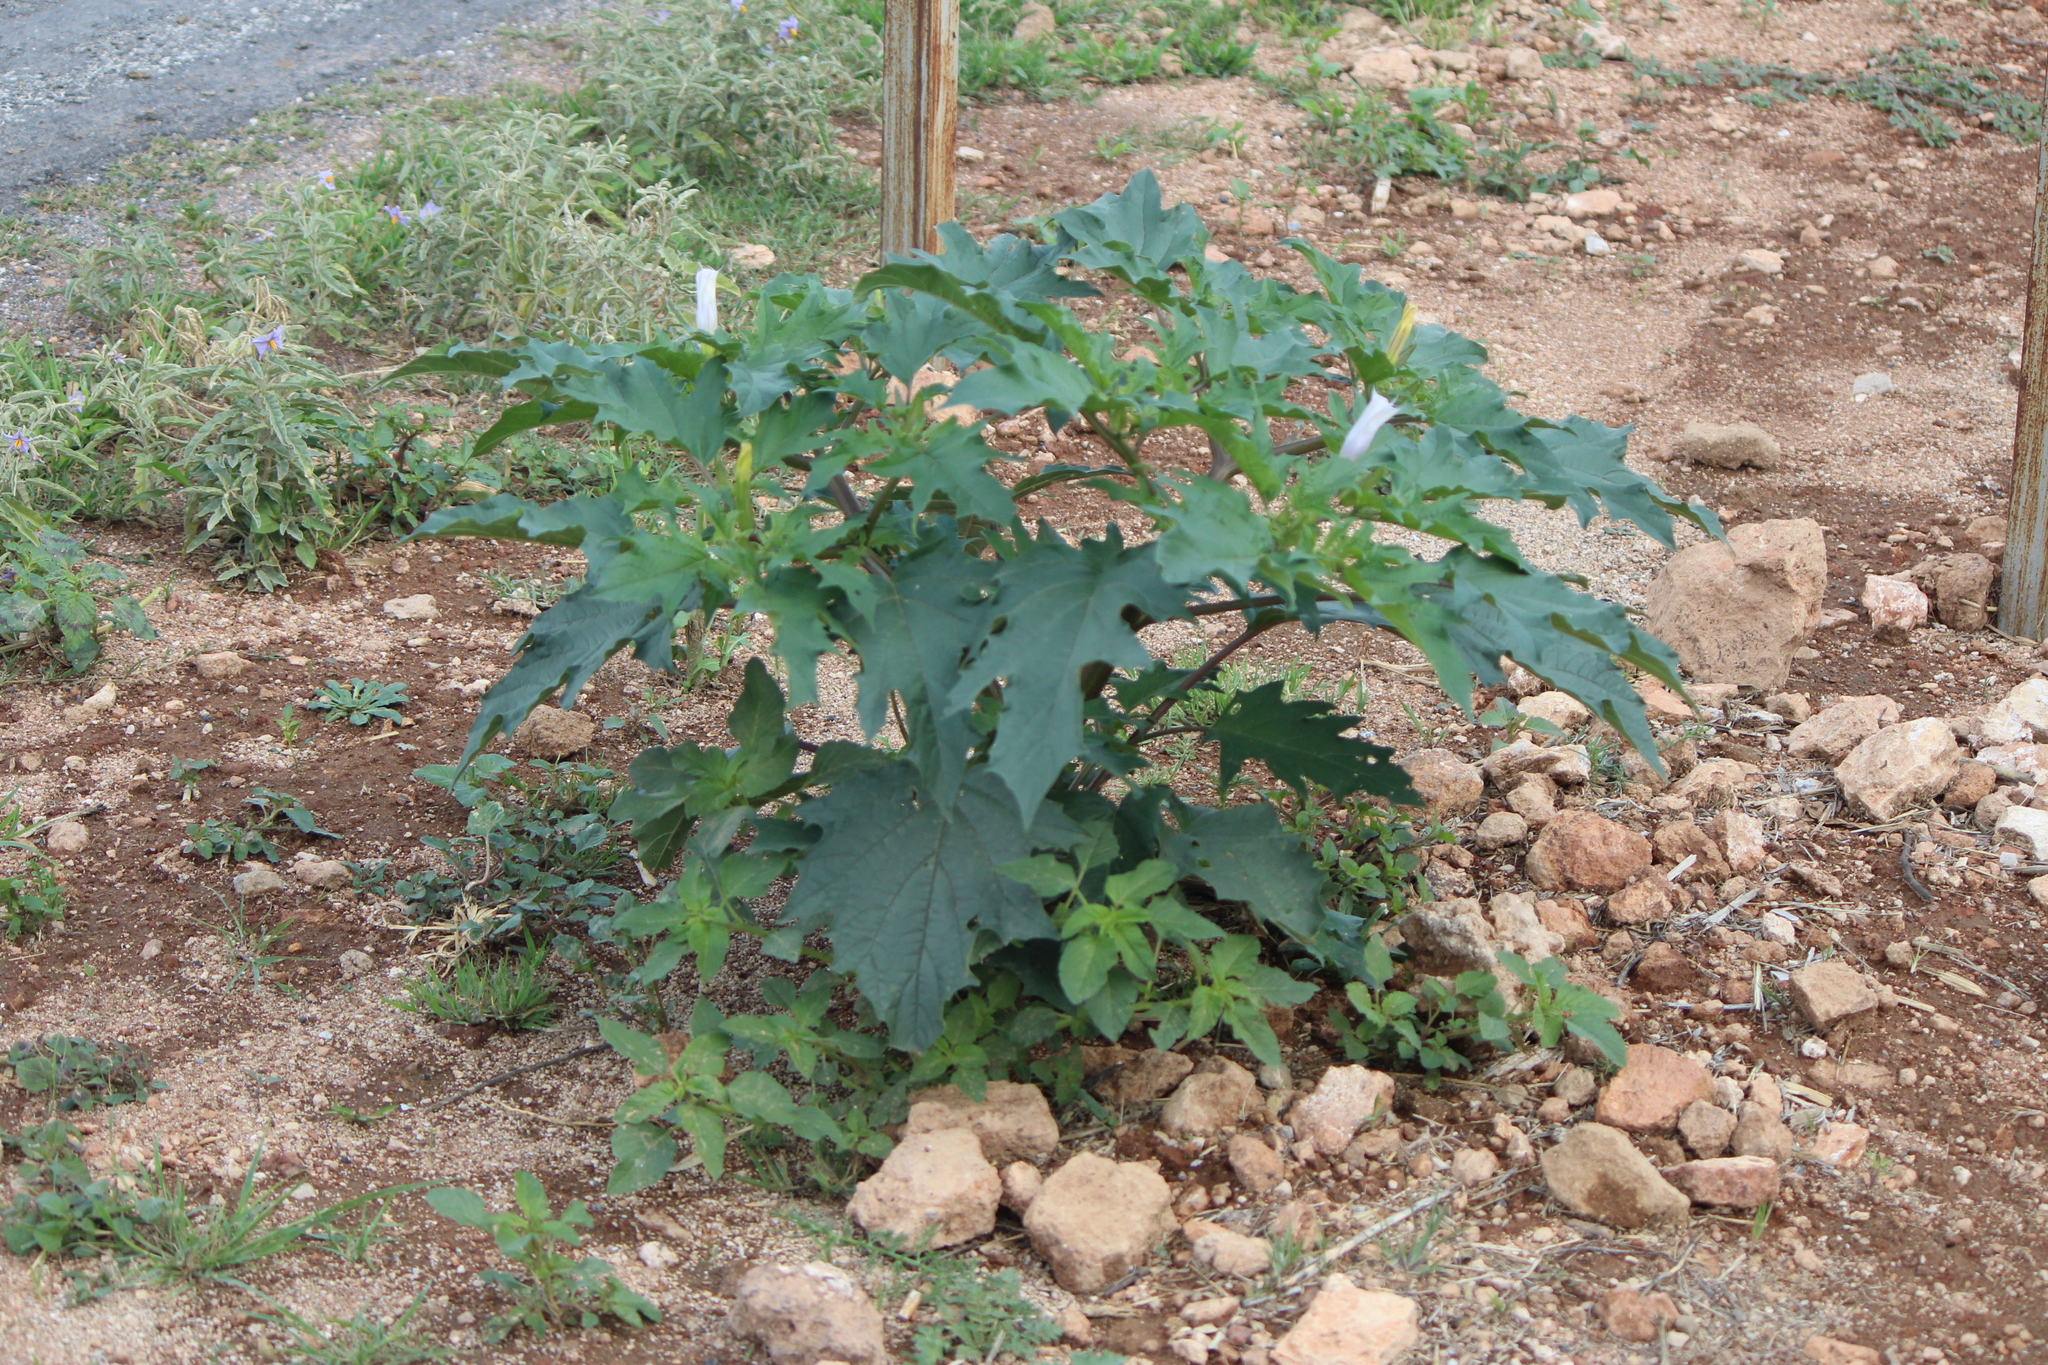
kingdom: Plantae
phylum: Tracheophyta
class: Magnoliopsida
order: Solanales
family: Solanaceae
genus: Datura
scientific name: Datura stramonium
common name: Thorn-apple
